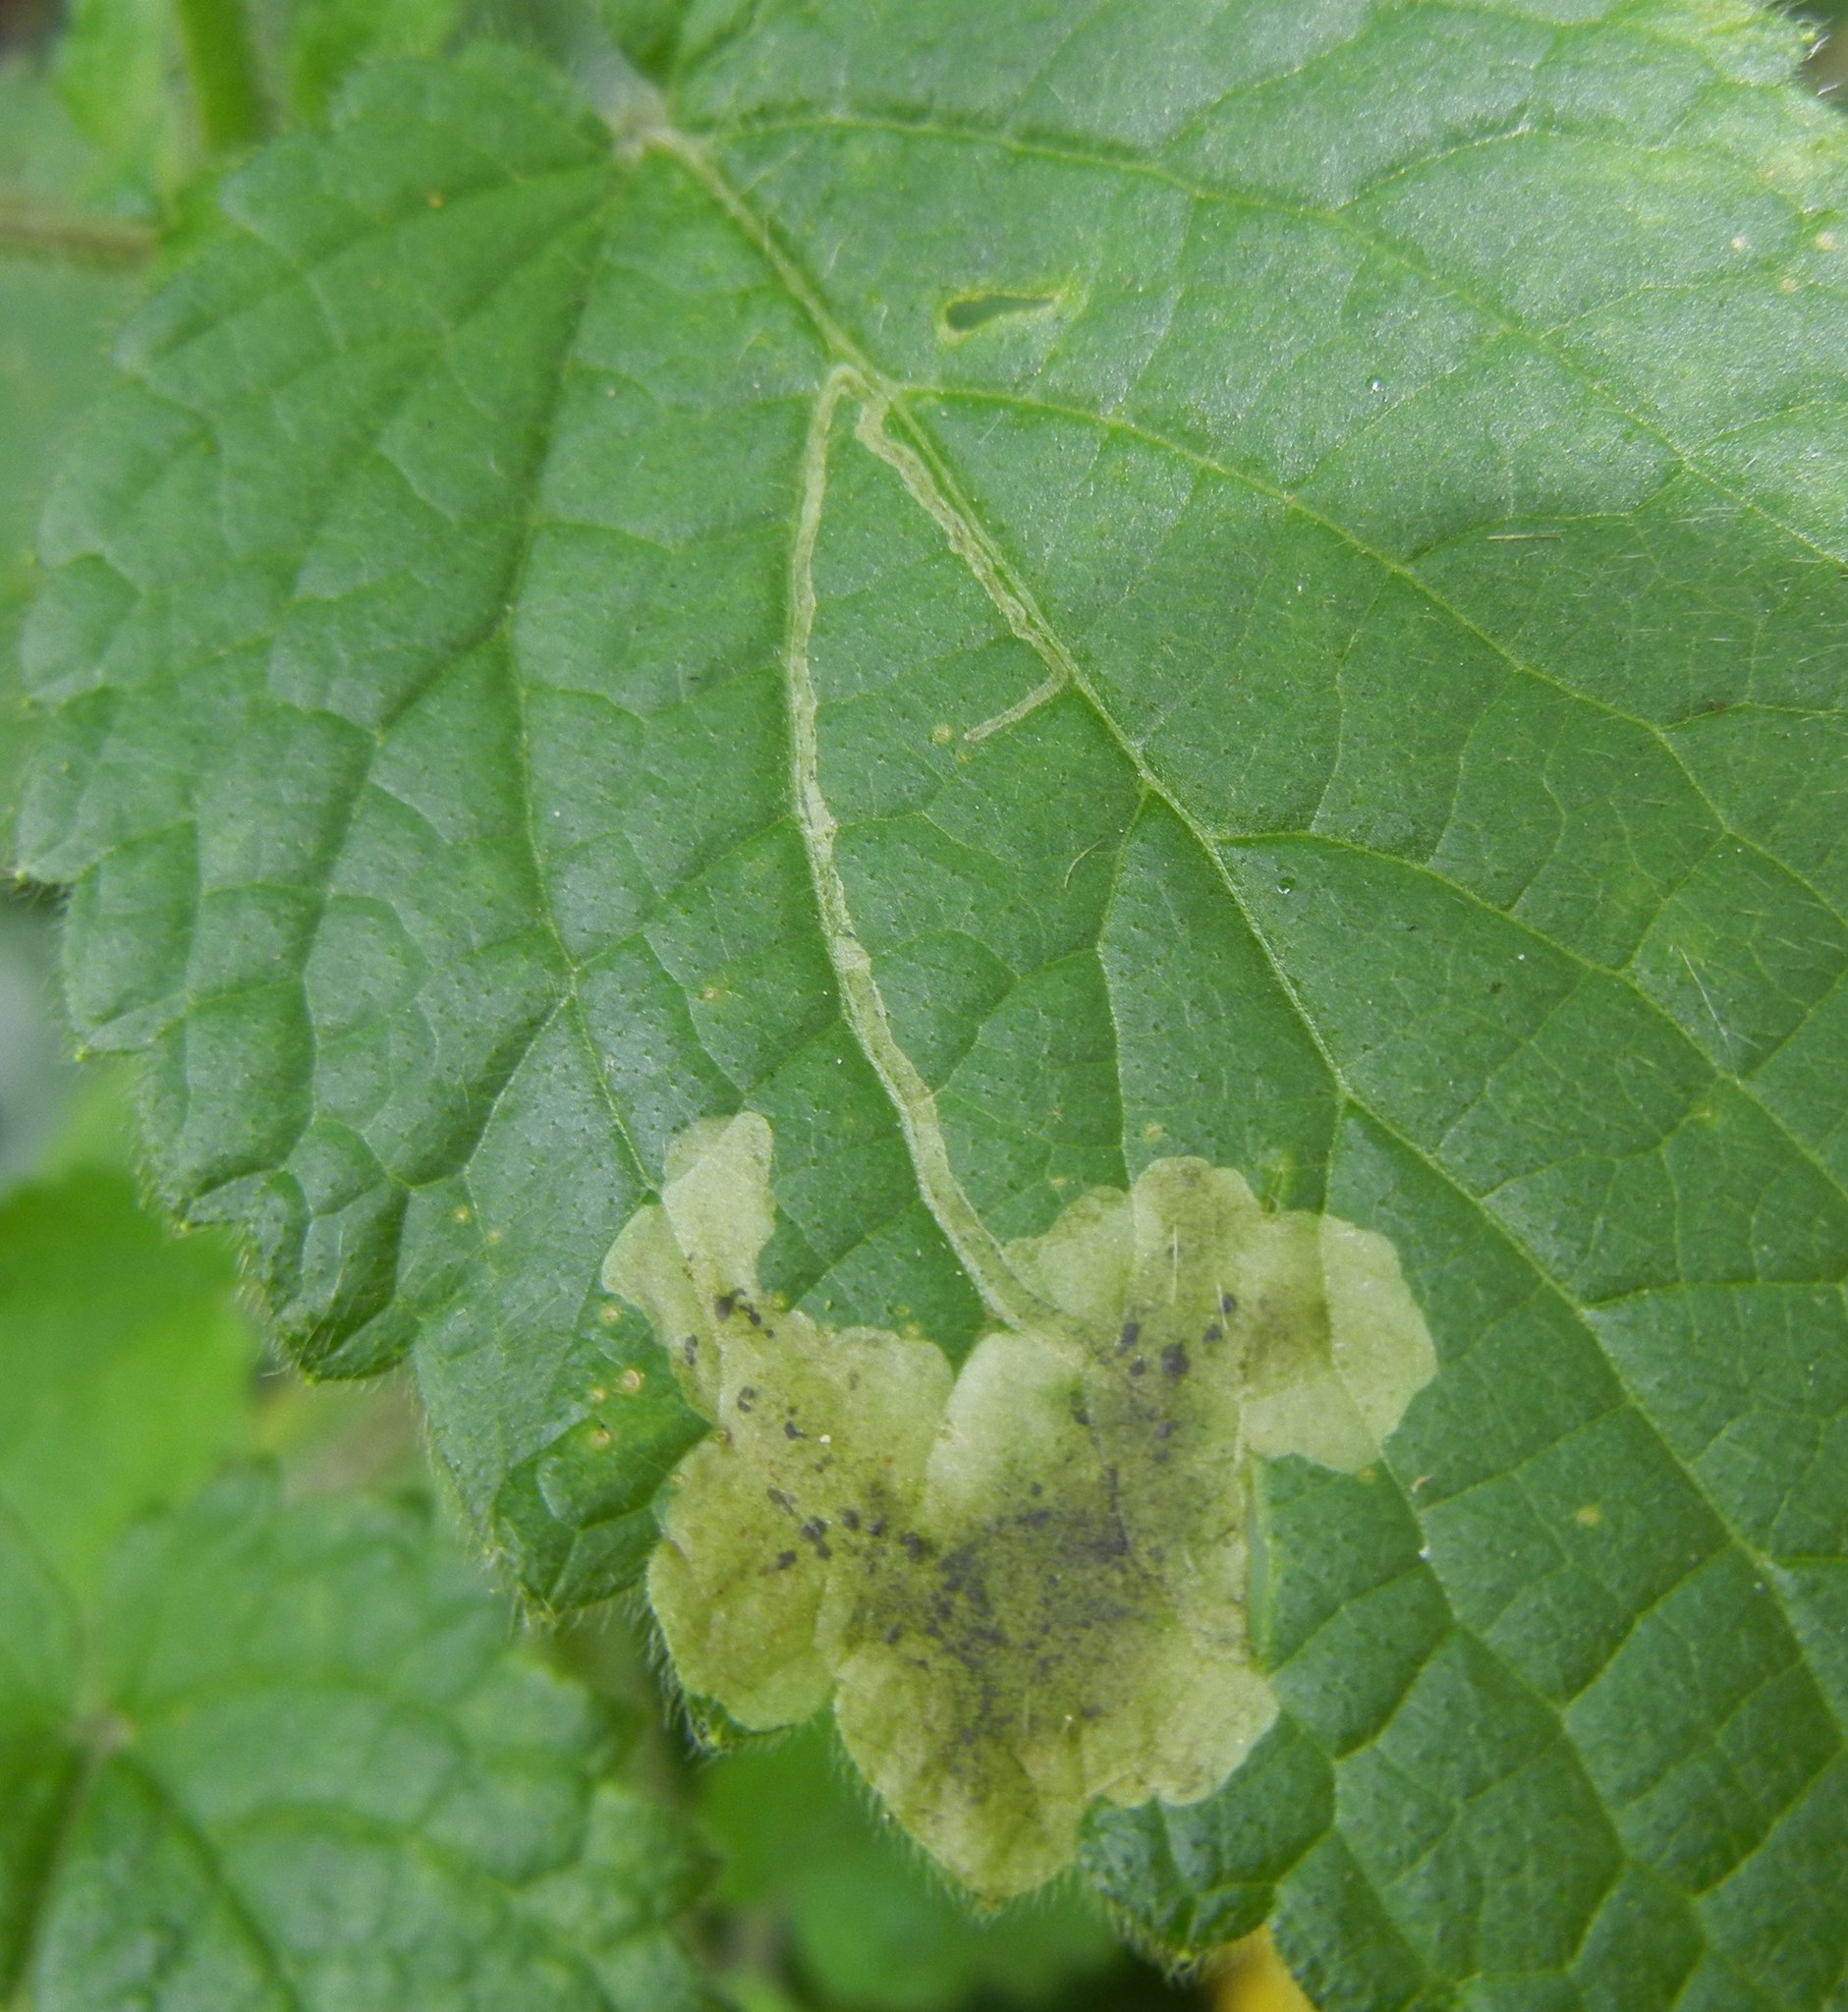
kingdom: Animalia
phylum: Arthropoda
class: Insecta
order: Diptera
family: Agromyzidae
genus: Amauromyza
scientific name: Amauromyza labiatarum
